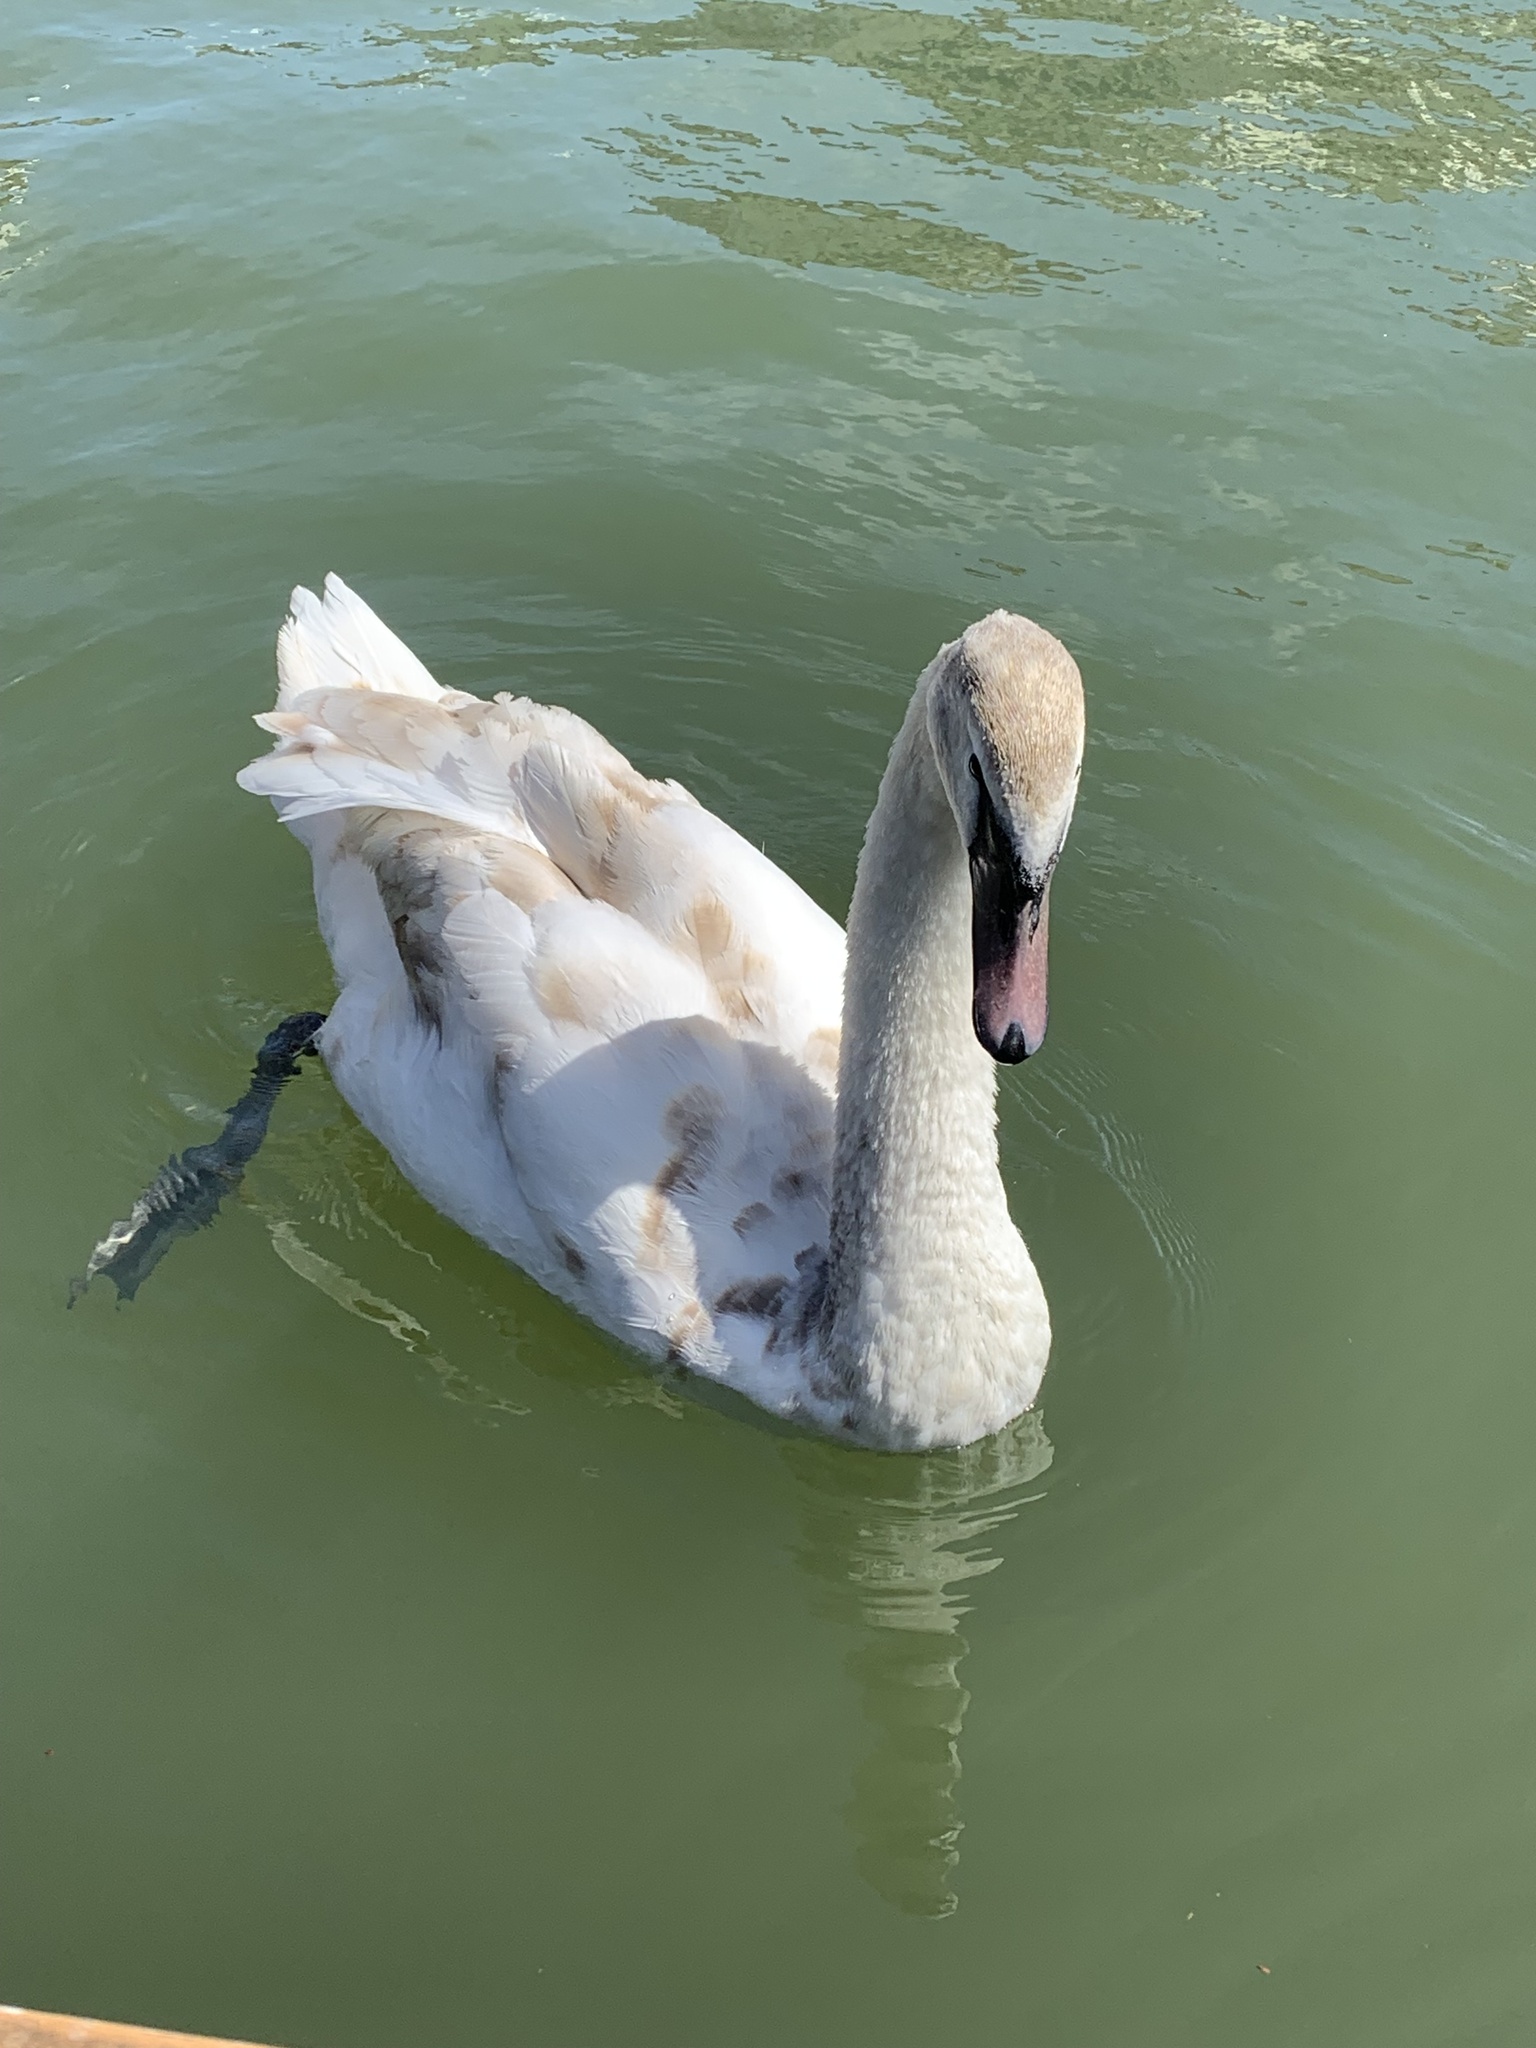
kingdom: Animalia
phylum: Chordata
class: Aves
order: Anseriformes
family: Anatidae
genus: Cygnus
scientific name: Cygnus olor
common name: Mute swan
